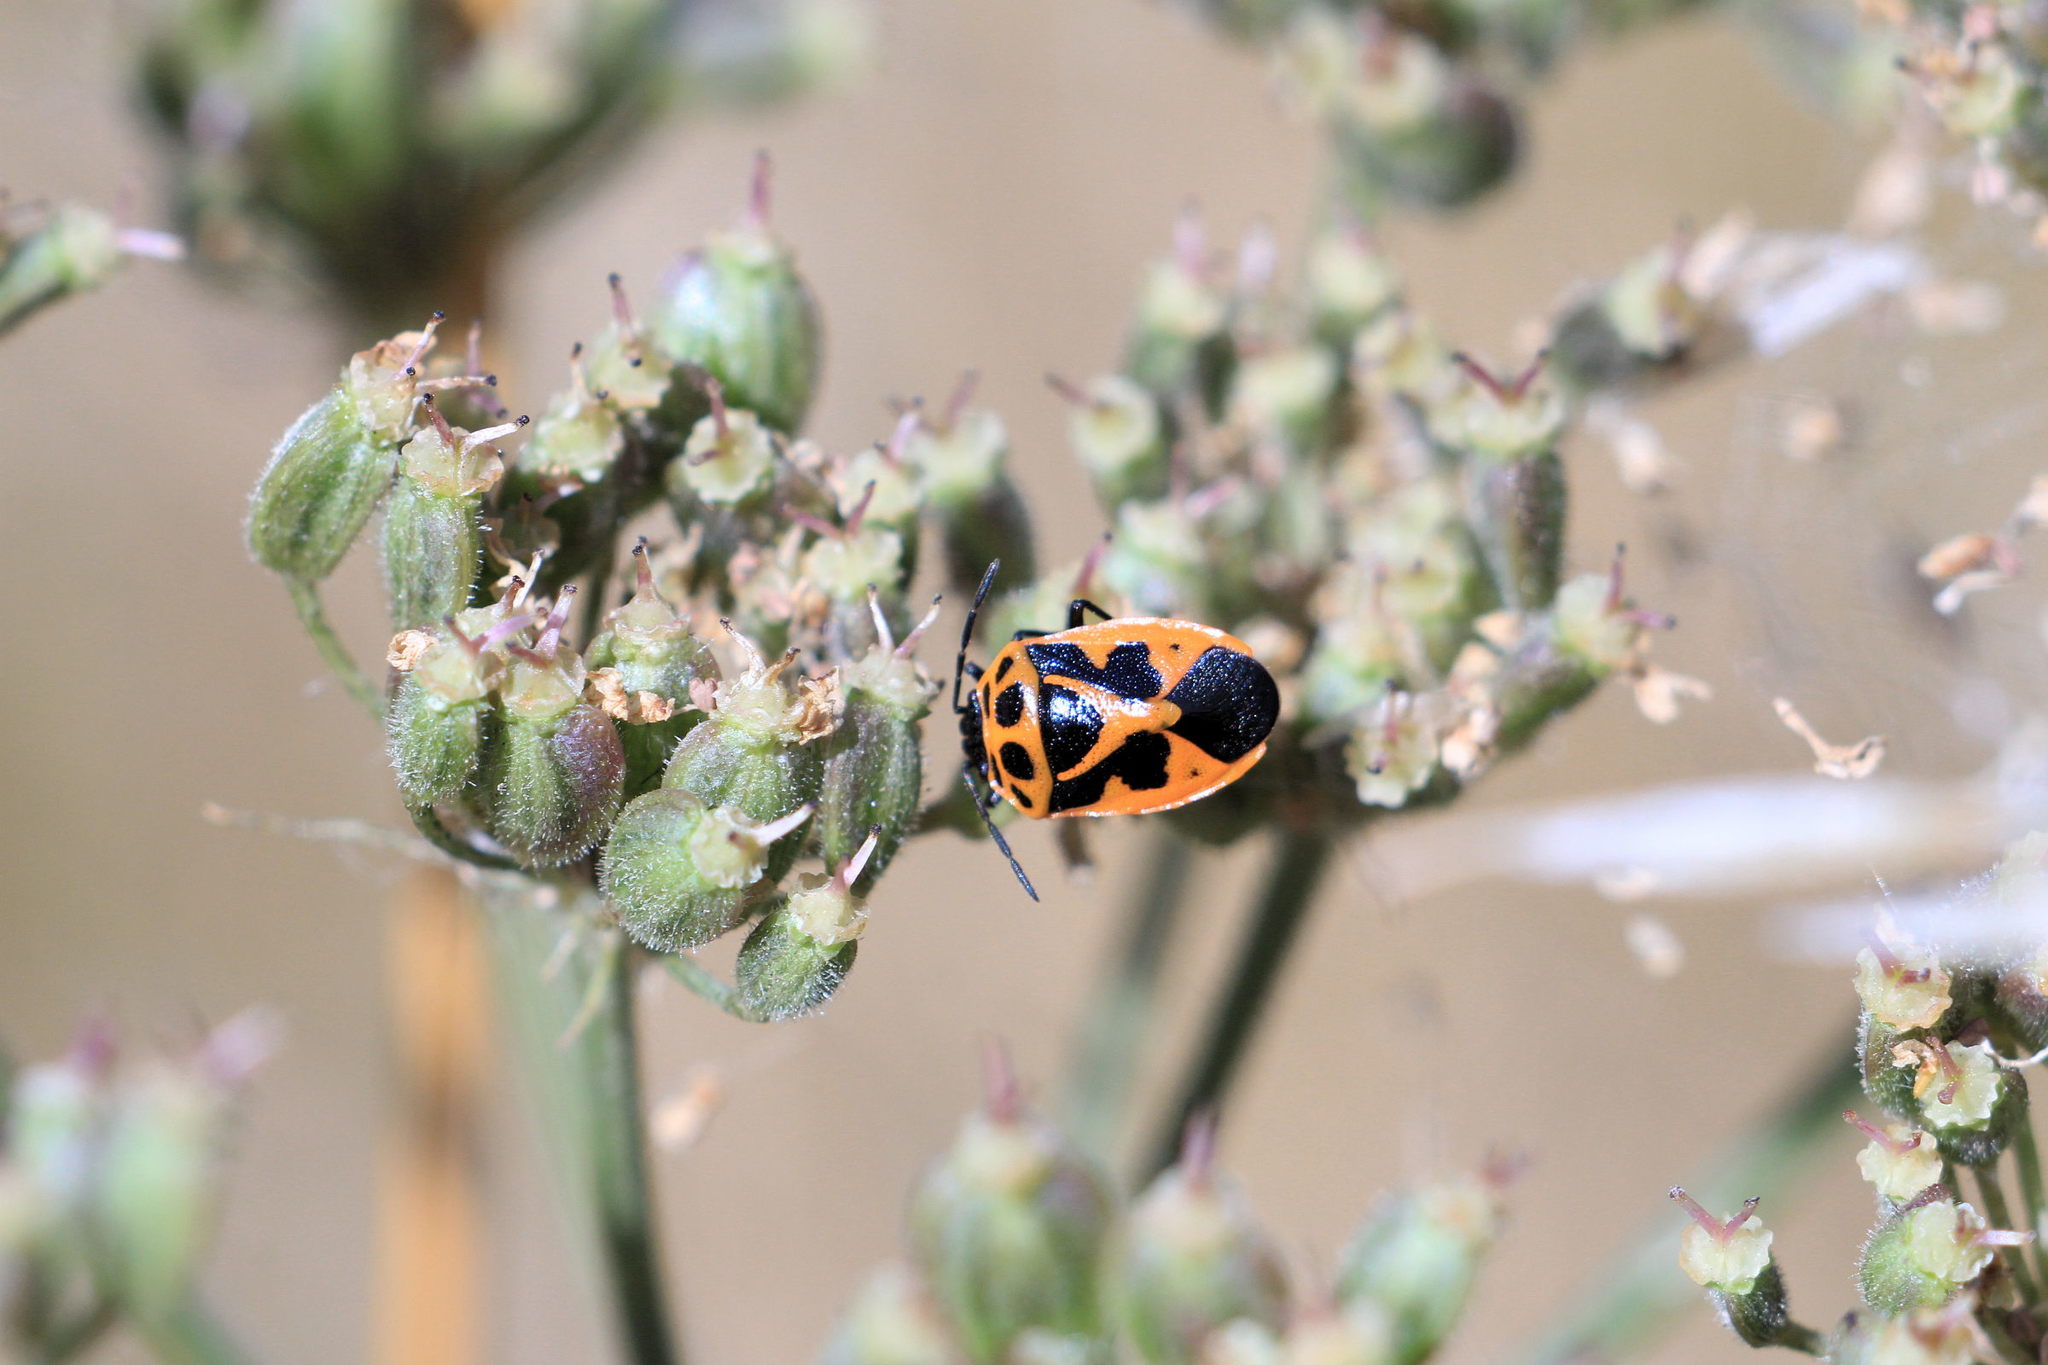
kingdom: Animalia
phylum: Arthropoda
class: Insecta
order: Hemiptera
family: Pentatomidae
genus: Eurydema
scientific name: Eurydema dominulus
